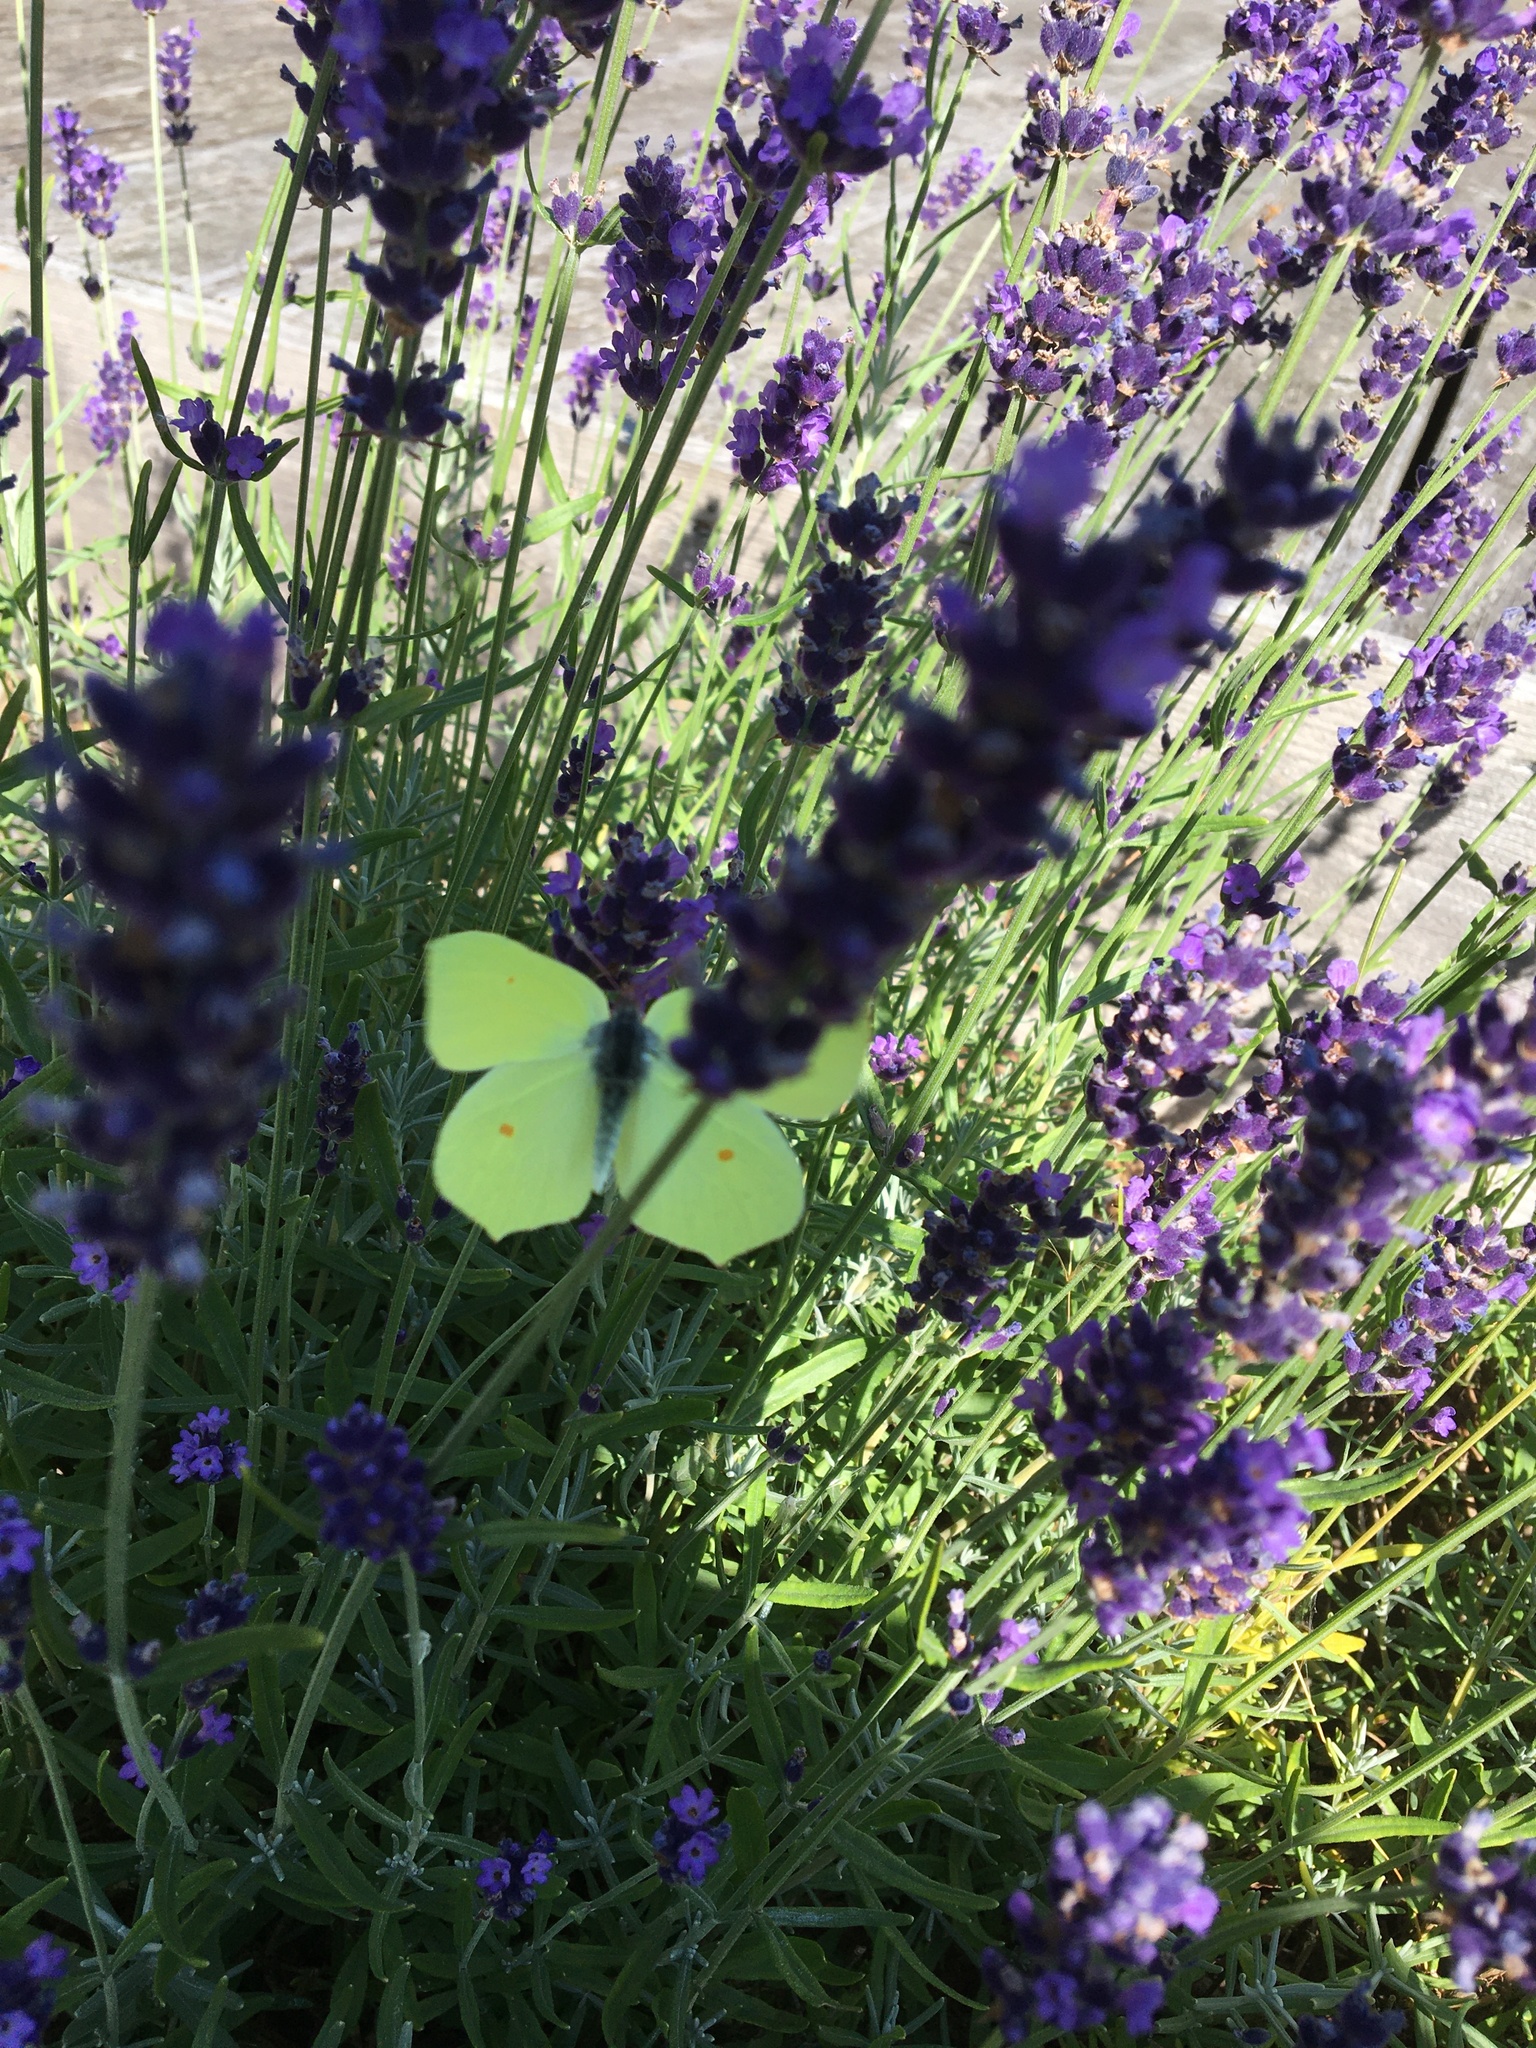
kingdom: Animalia
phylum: Arthropoda
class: Insecta
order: Lepidoptera
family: Pieridae
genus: Gonepteryx
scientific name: Gonepteryx rhamni
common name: Brimstone
